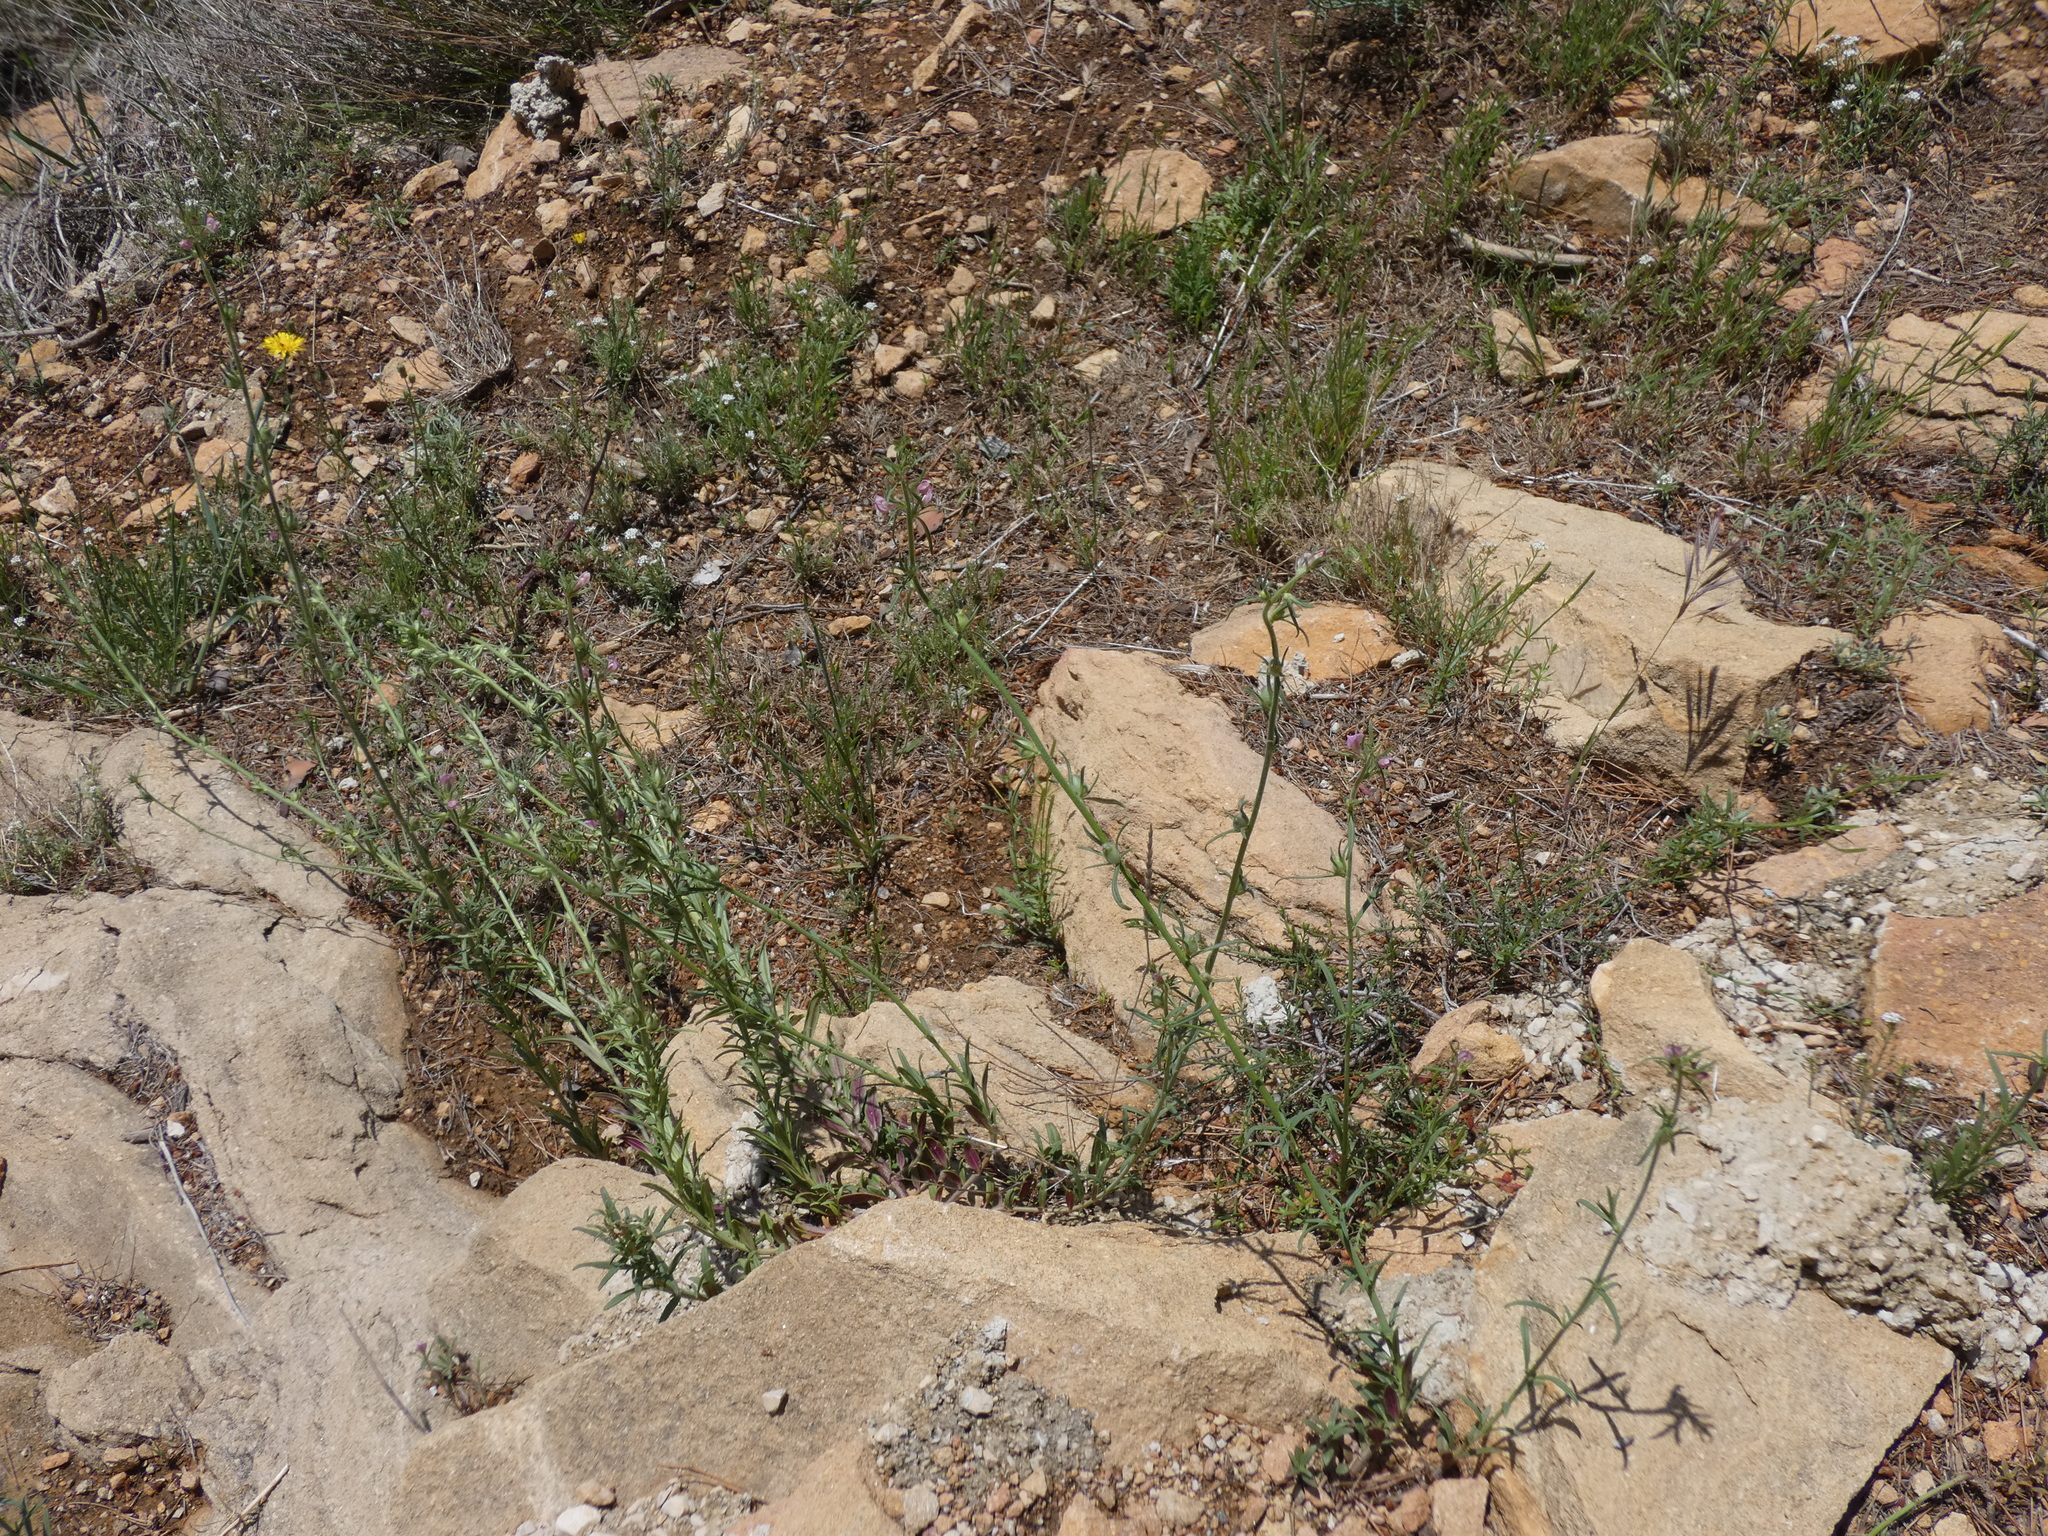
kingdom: Plantae
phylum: Tracheophyta
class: Magnoliopsida
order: Lamiales
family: Plantaginaceae
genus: Misopates
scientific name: Misopates orontium
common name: Weasel's-snout
